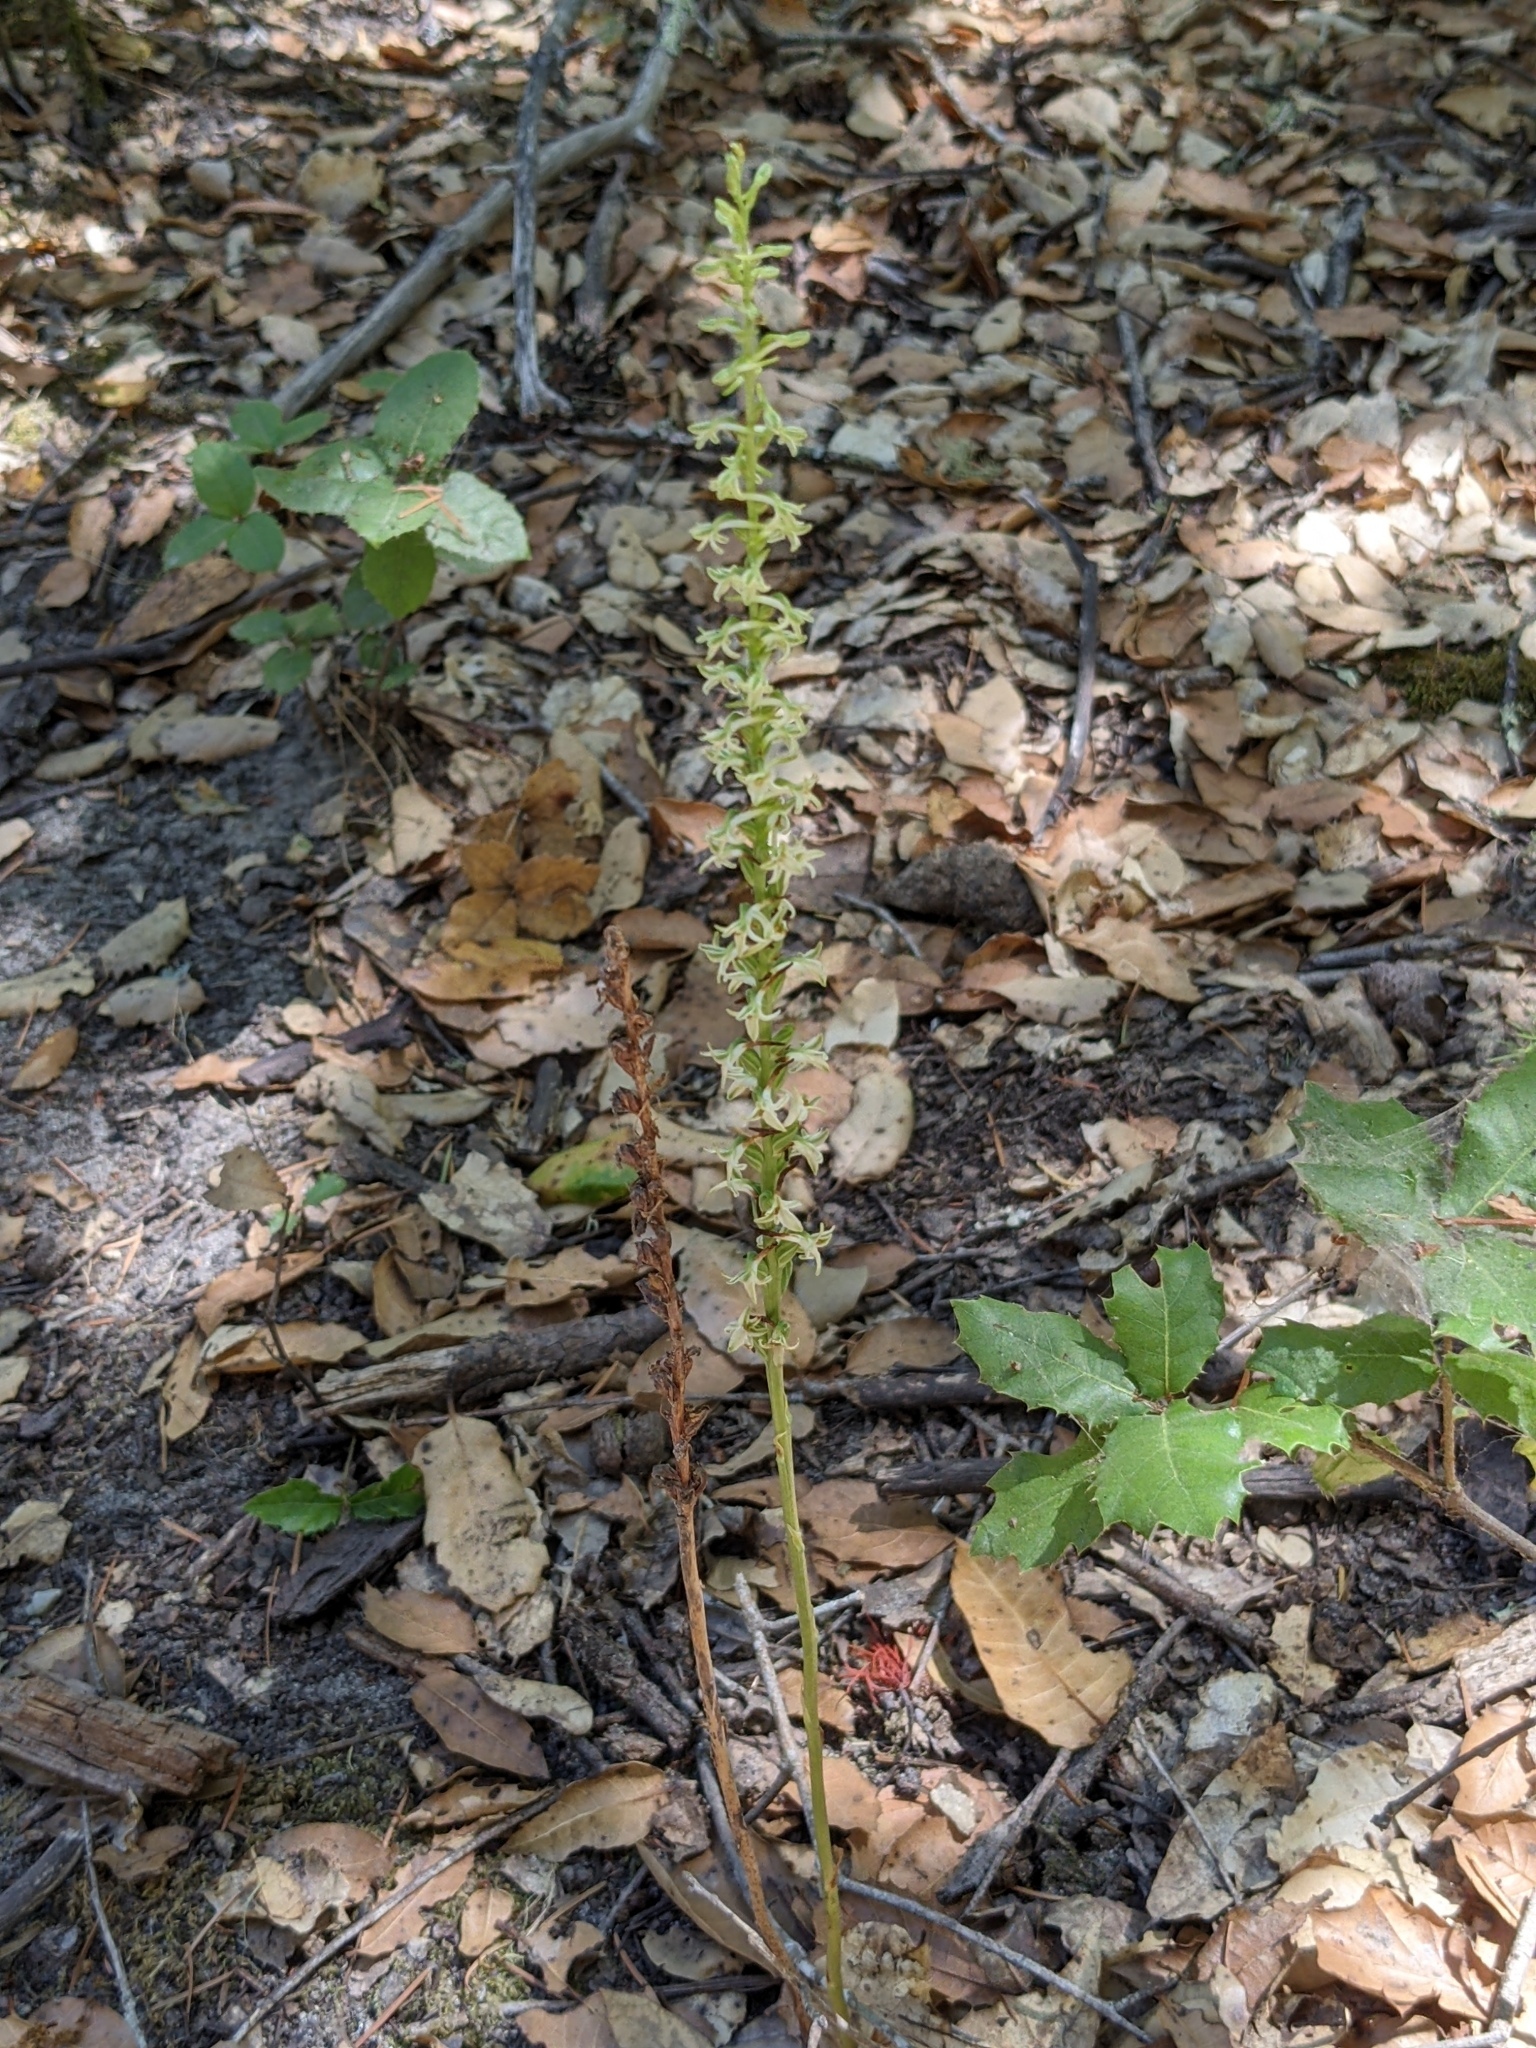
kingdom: Plantae
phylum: Tracheophyta
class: Liliopsida
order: Asparagales
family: Orchidaceae
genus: Platanthera
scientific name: Platanthera transversa
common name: Royal rein orchid
